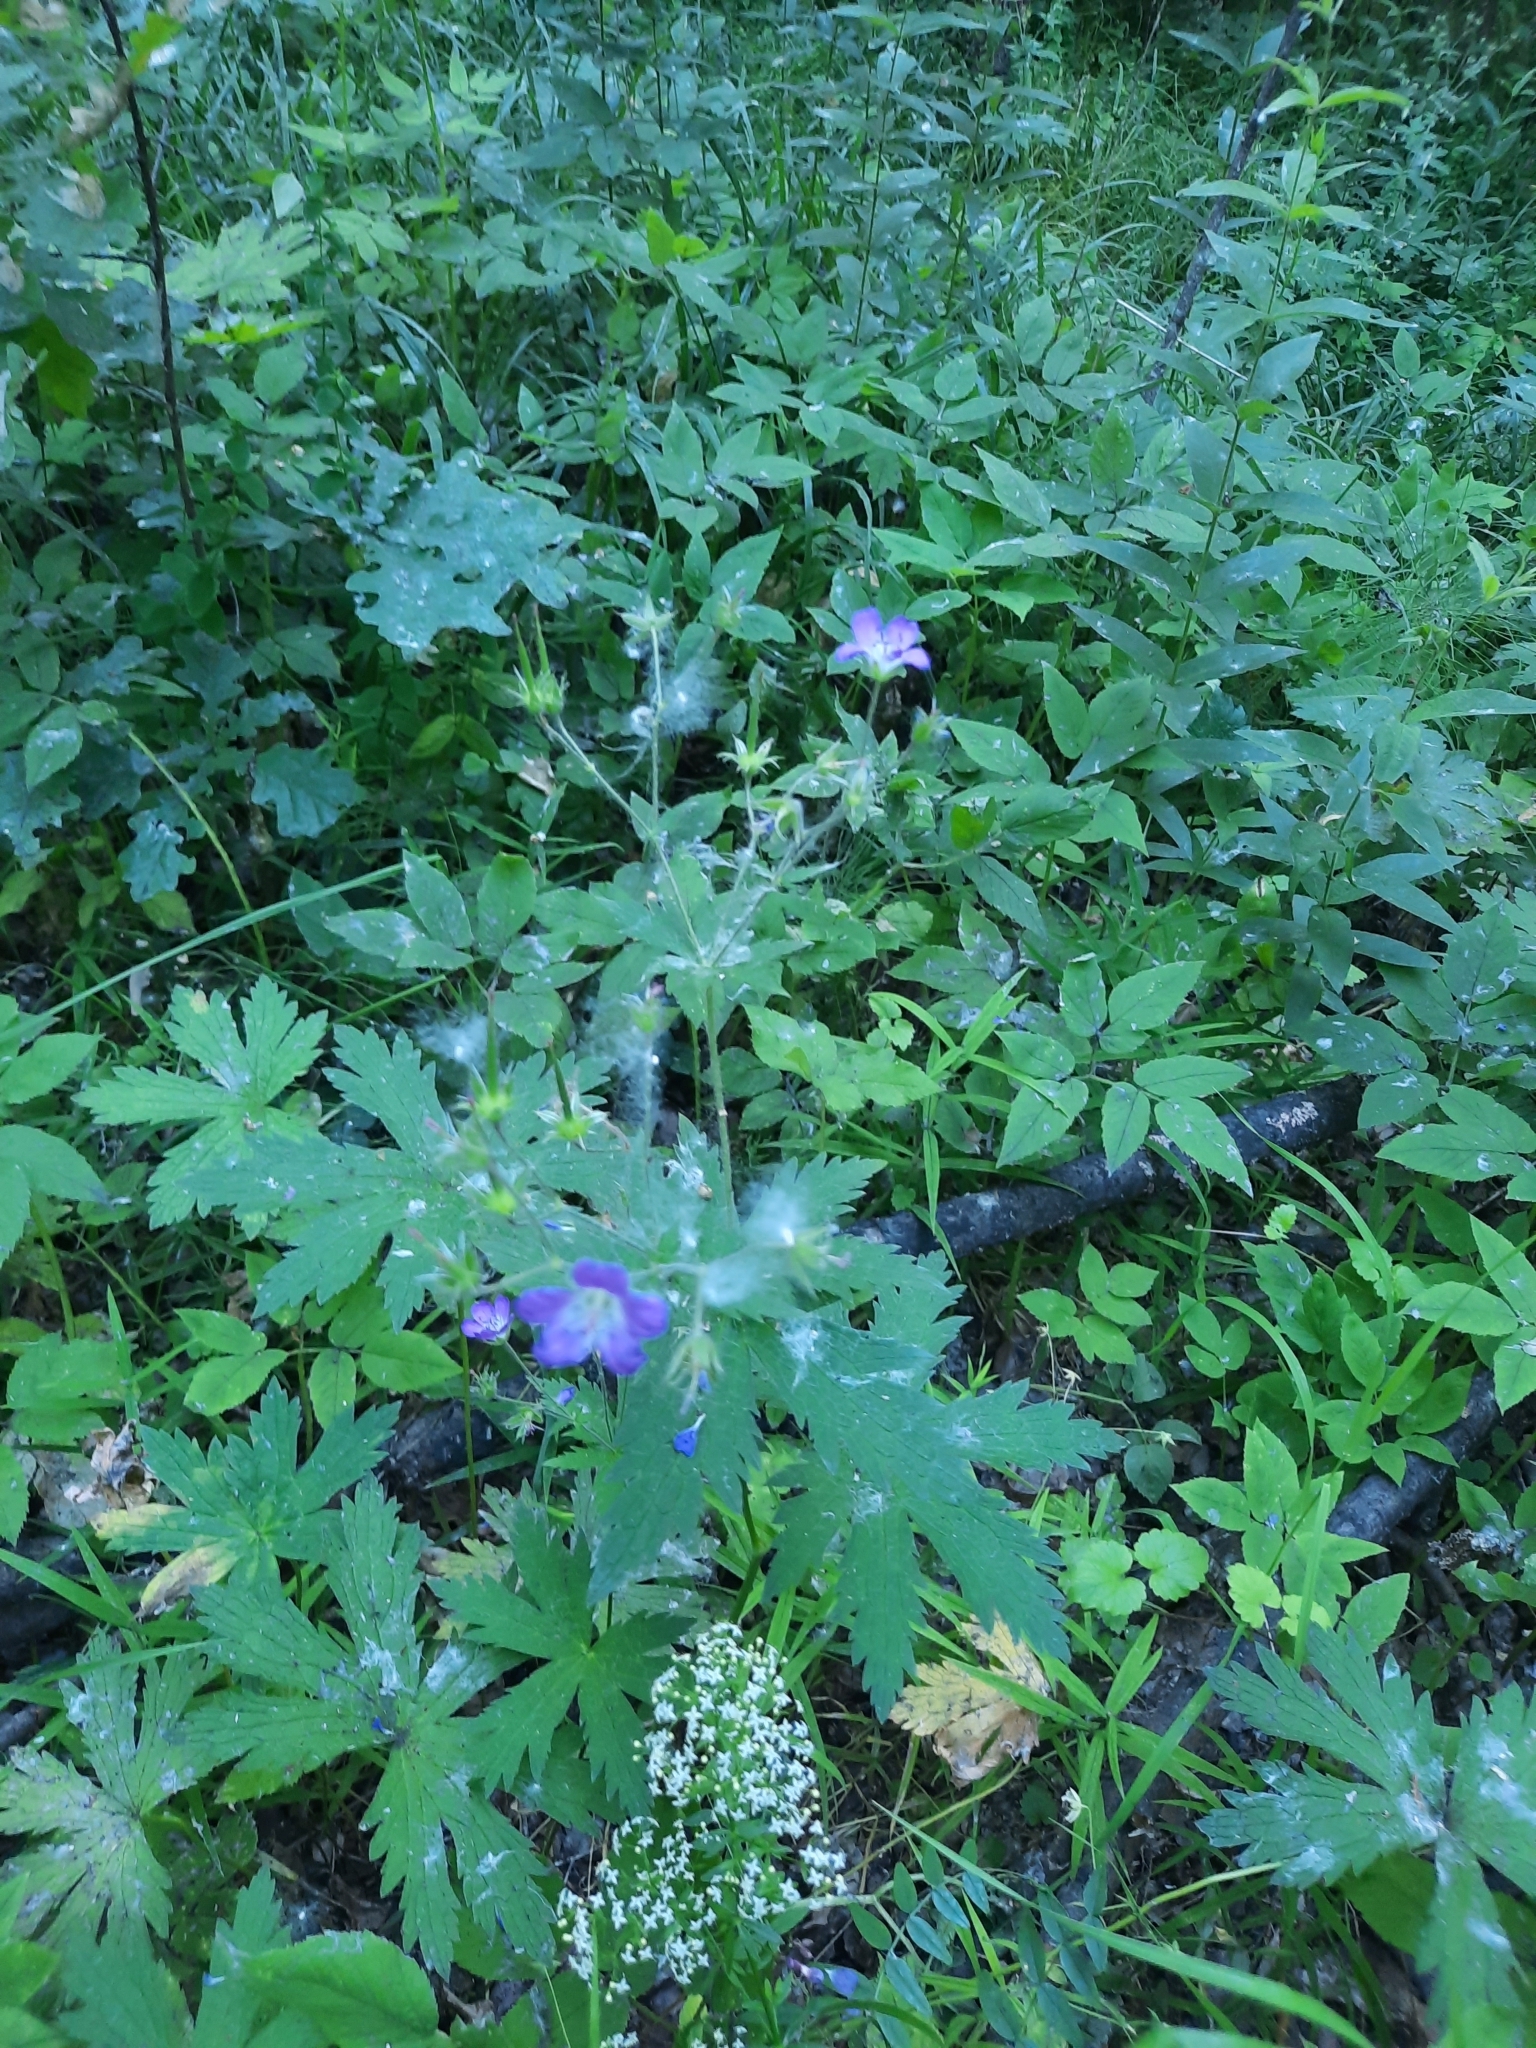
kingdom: Plantae
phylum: Tracheophyta
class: Magnoliopsida
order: Geraniales
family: Geraniaceae
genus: Geranium
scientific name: Geranium sylvaticum
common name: Wood crane's-bill
